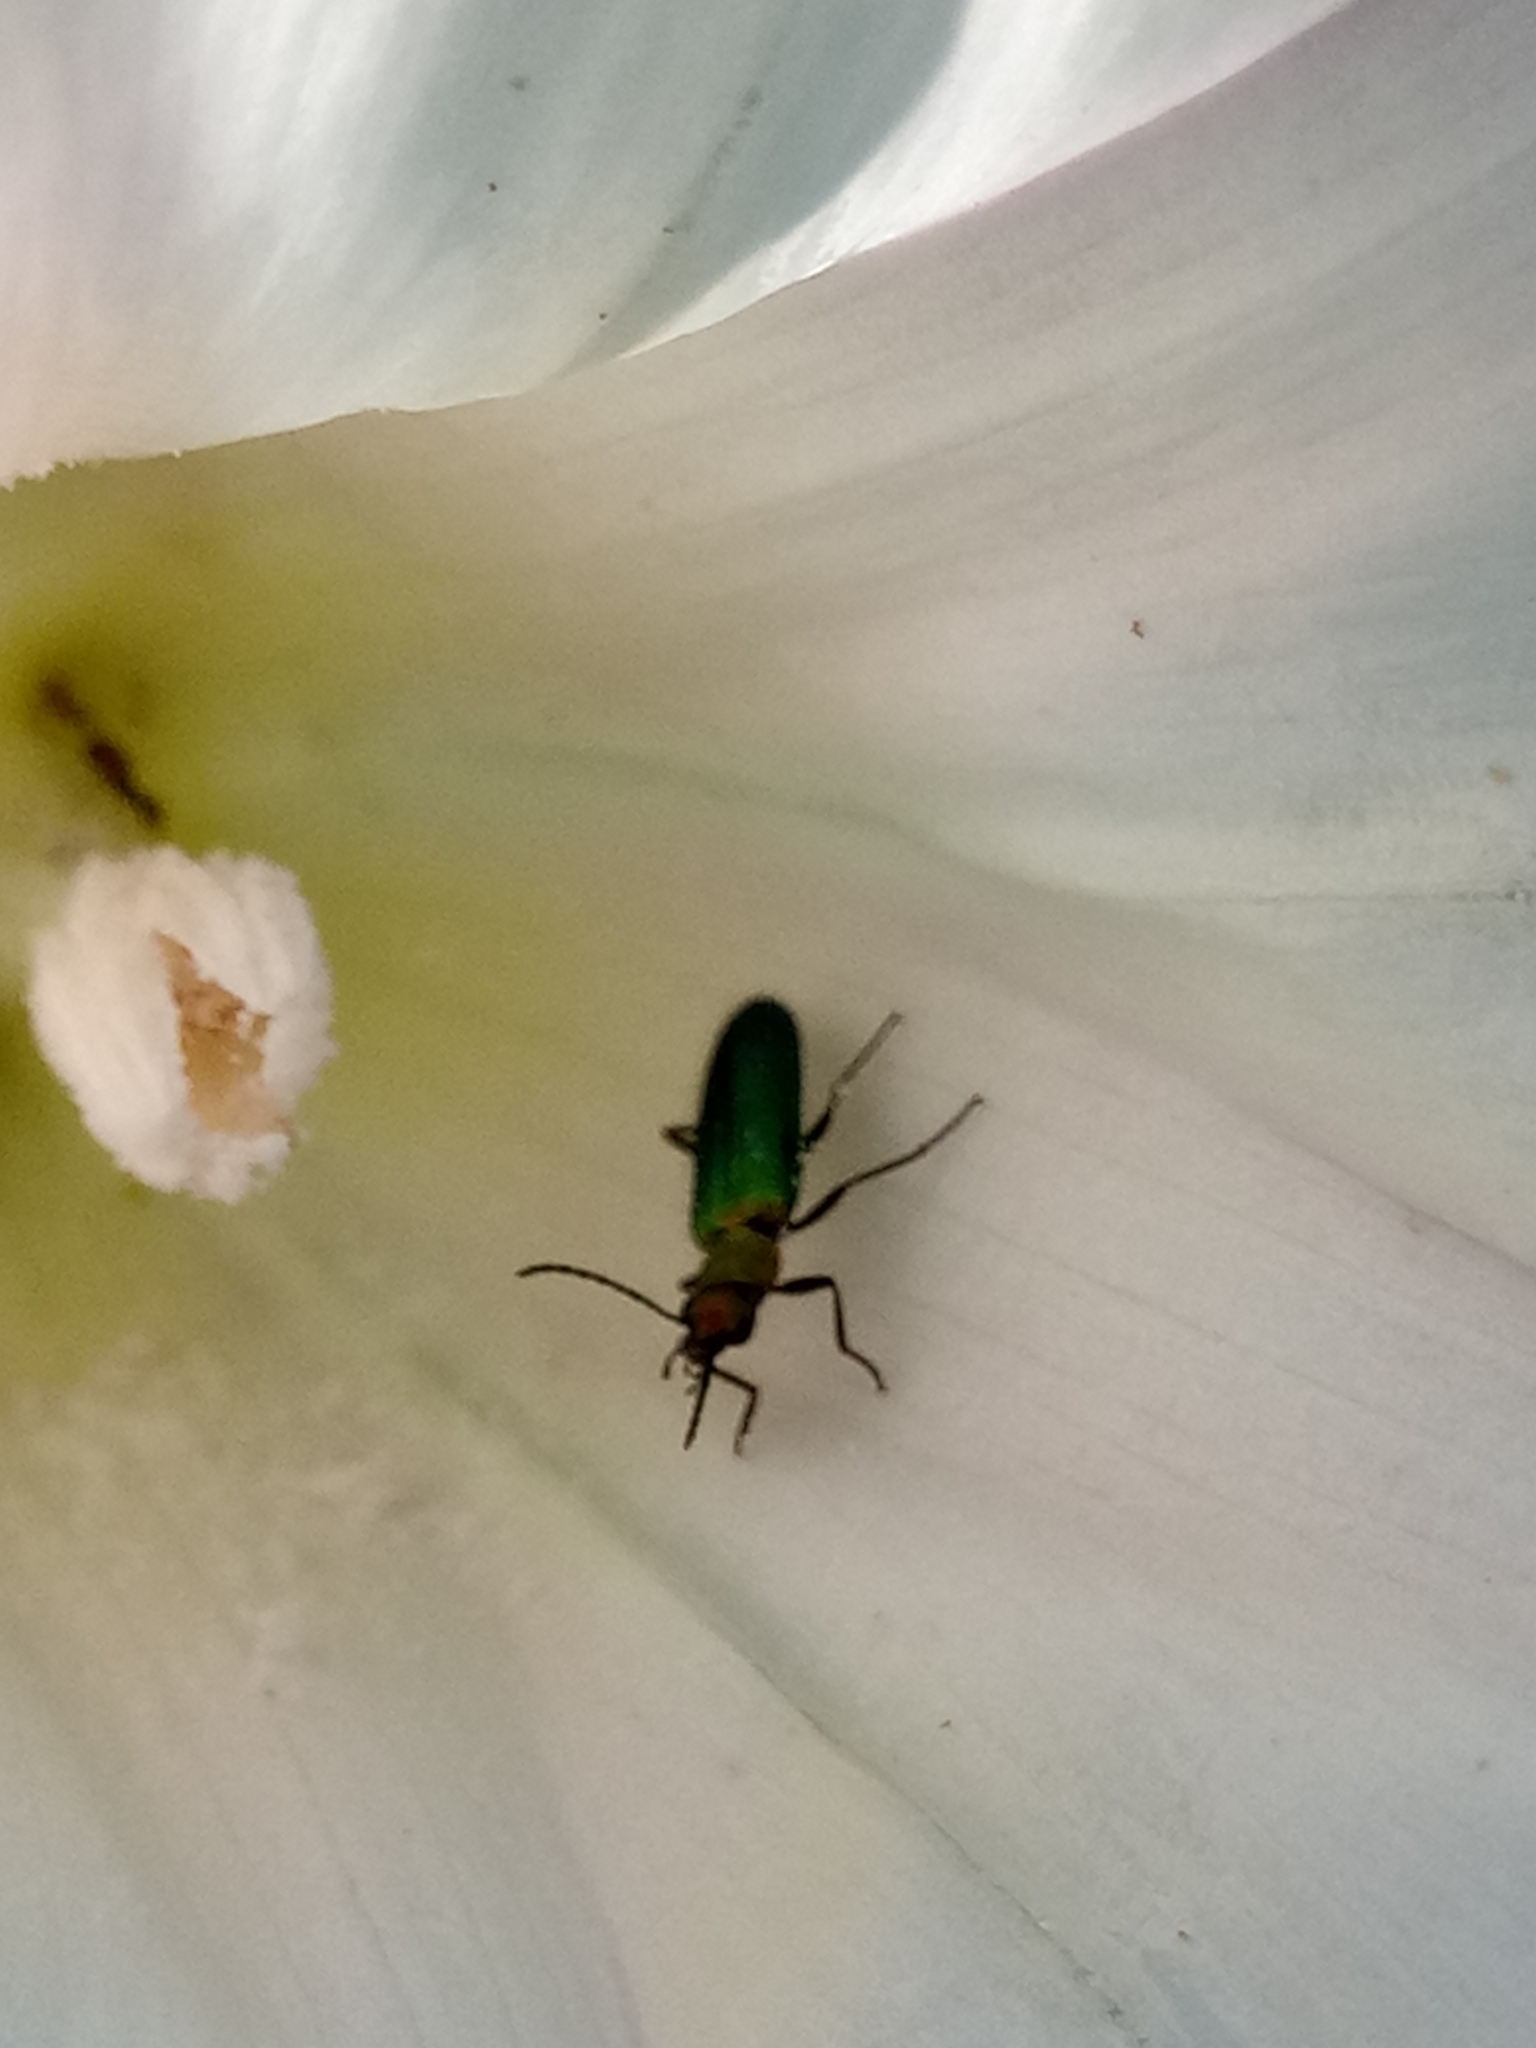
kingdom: Animalia
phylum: Arthropoda
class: Insecta
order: Coleoptera
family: Stenotrachelidae
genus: Stenotrachelus
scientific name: Stenotrachelus aeneus
